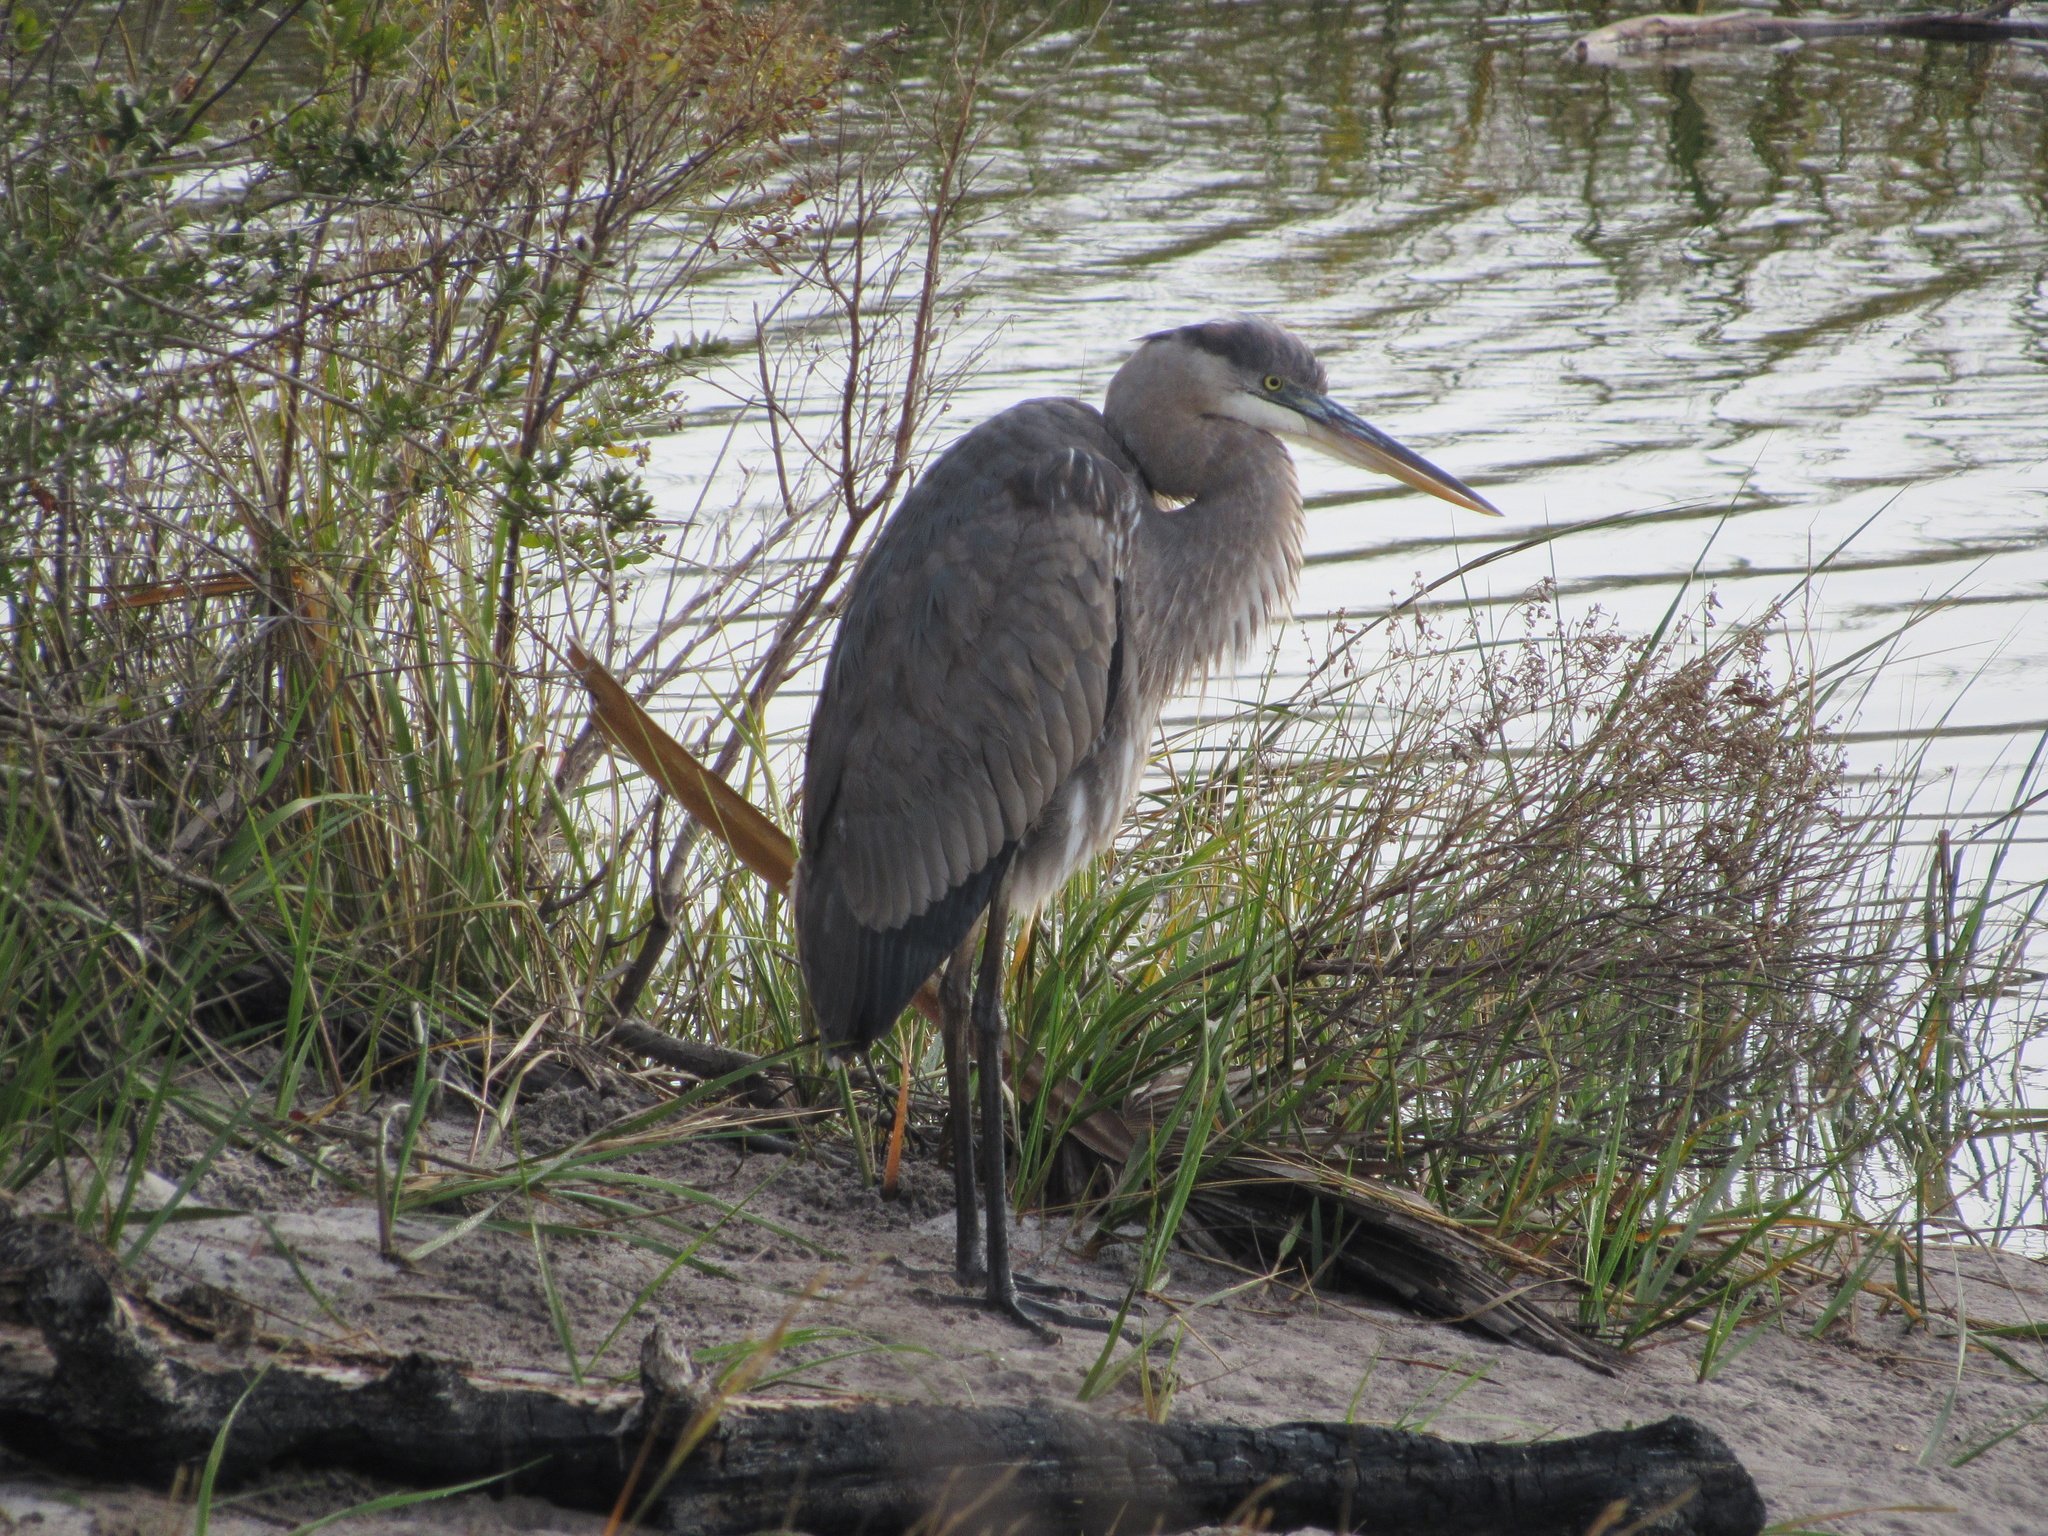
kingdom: Animalia
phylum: Chordata
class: Aves
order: Pelecaniformes
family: Ardeidae
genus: Ardea
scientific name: Ardea herodias
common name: Great blue heron
